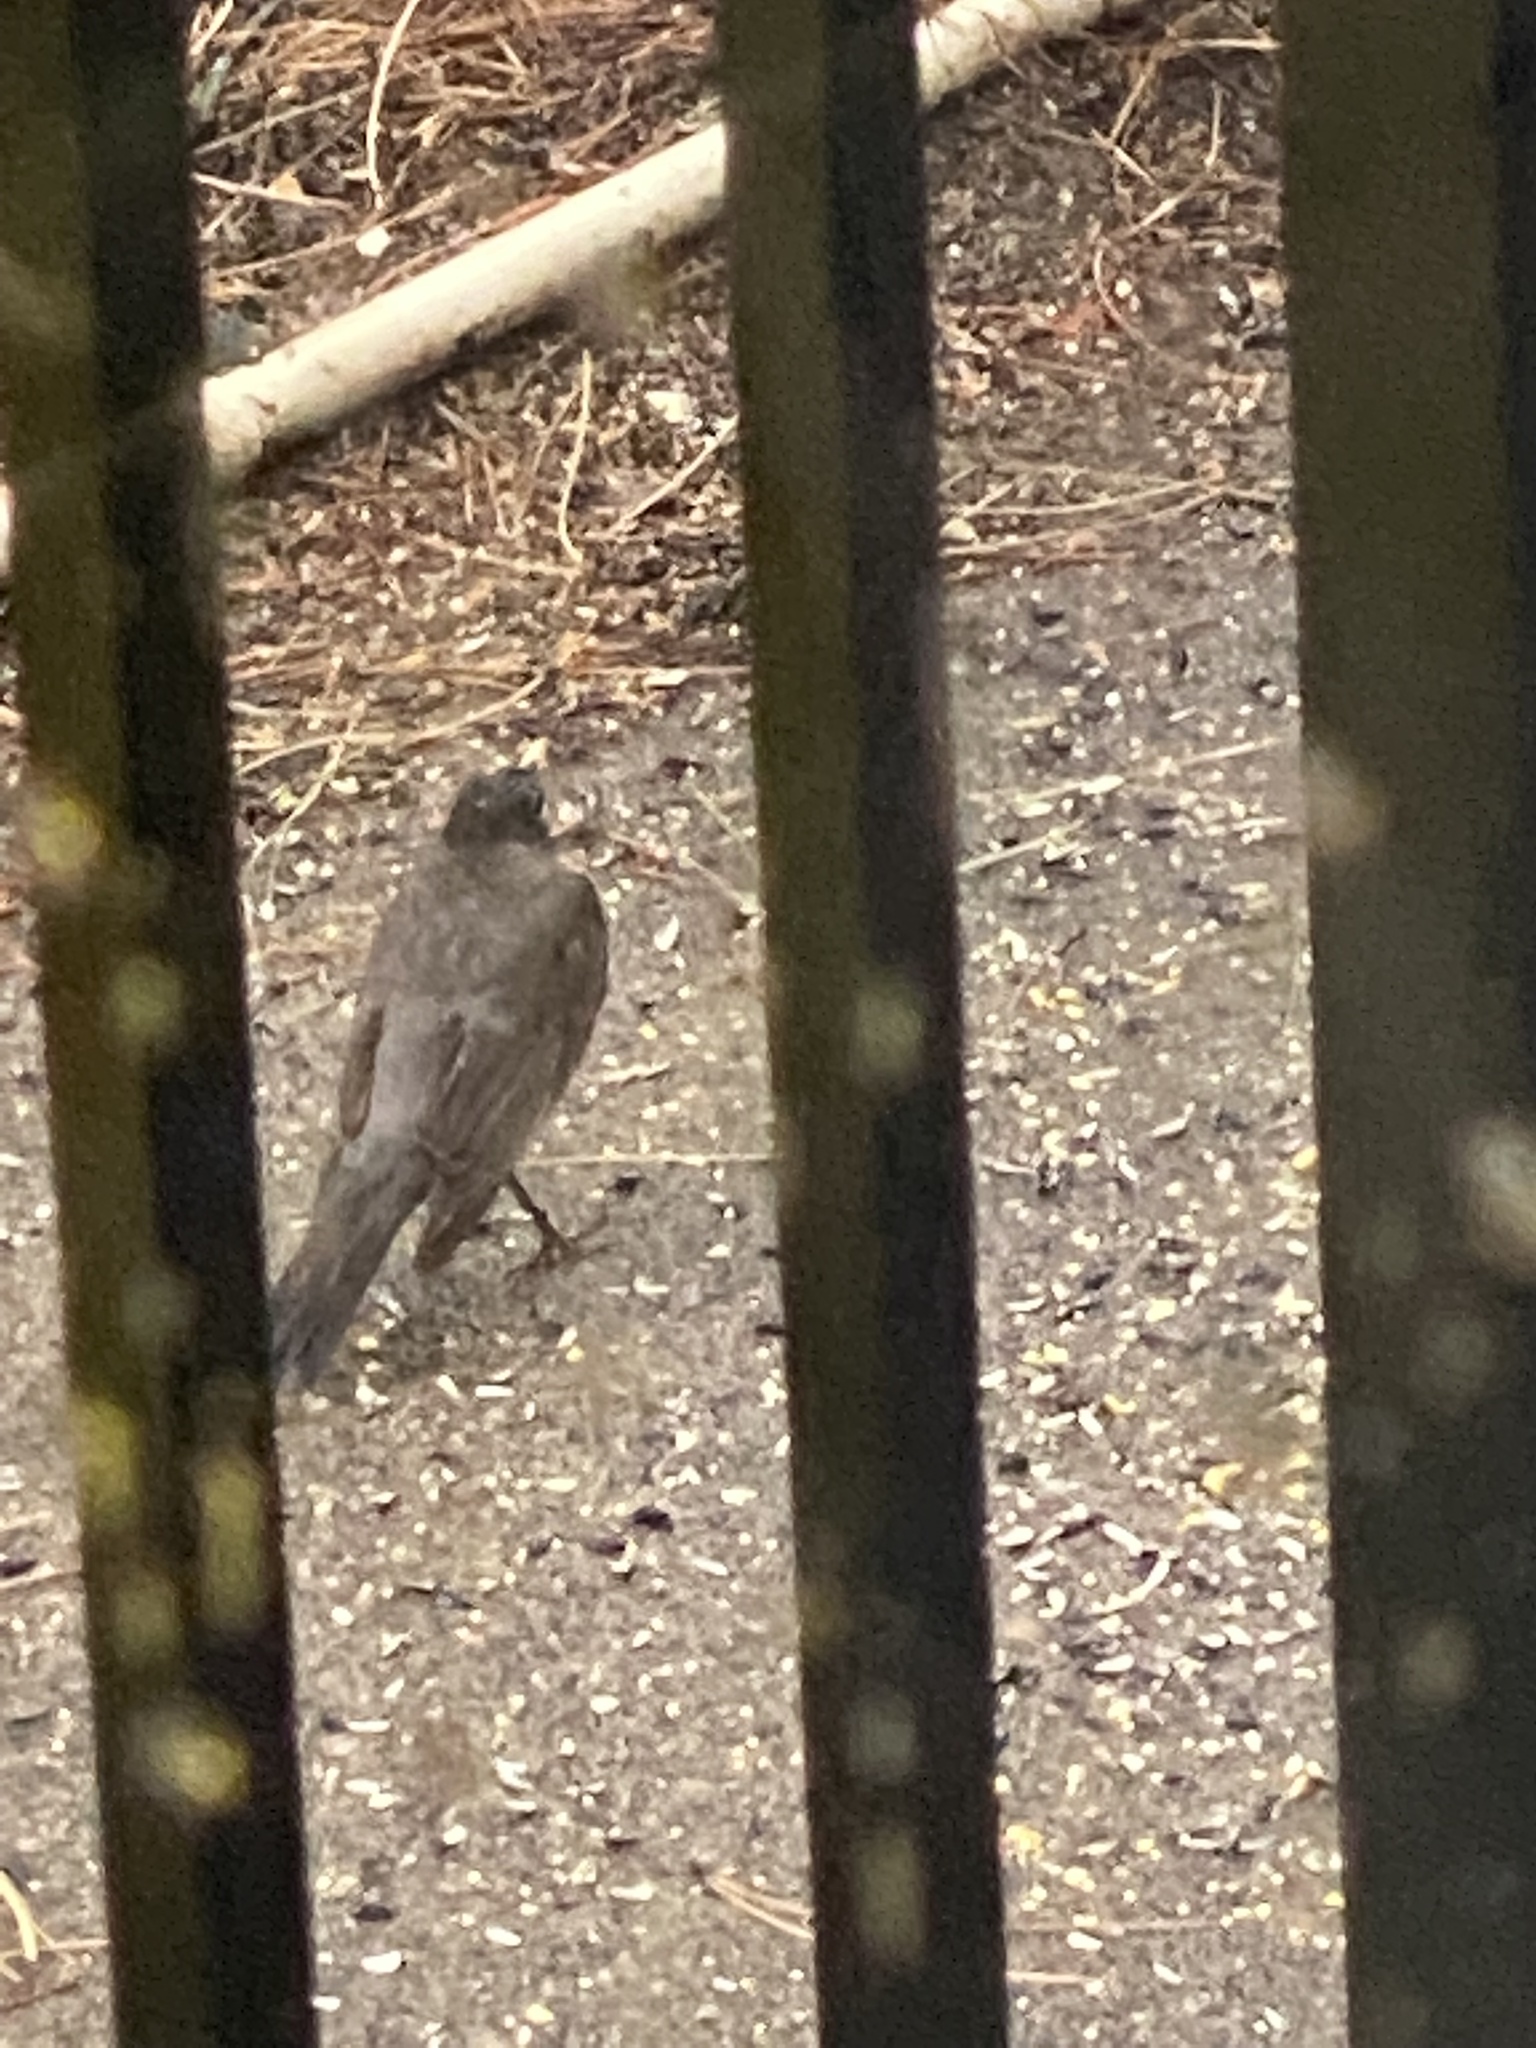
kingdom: Animalia
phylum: Chordata
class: Aves
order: Passeriformes
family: Turdidae
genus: Turdus
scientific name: Turdus migratorius
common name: American robin
